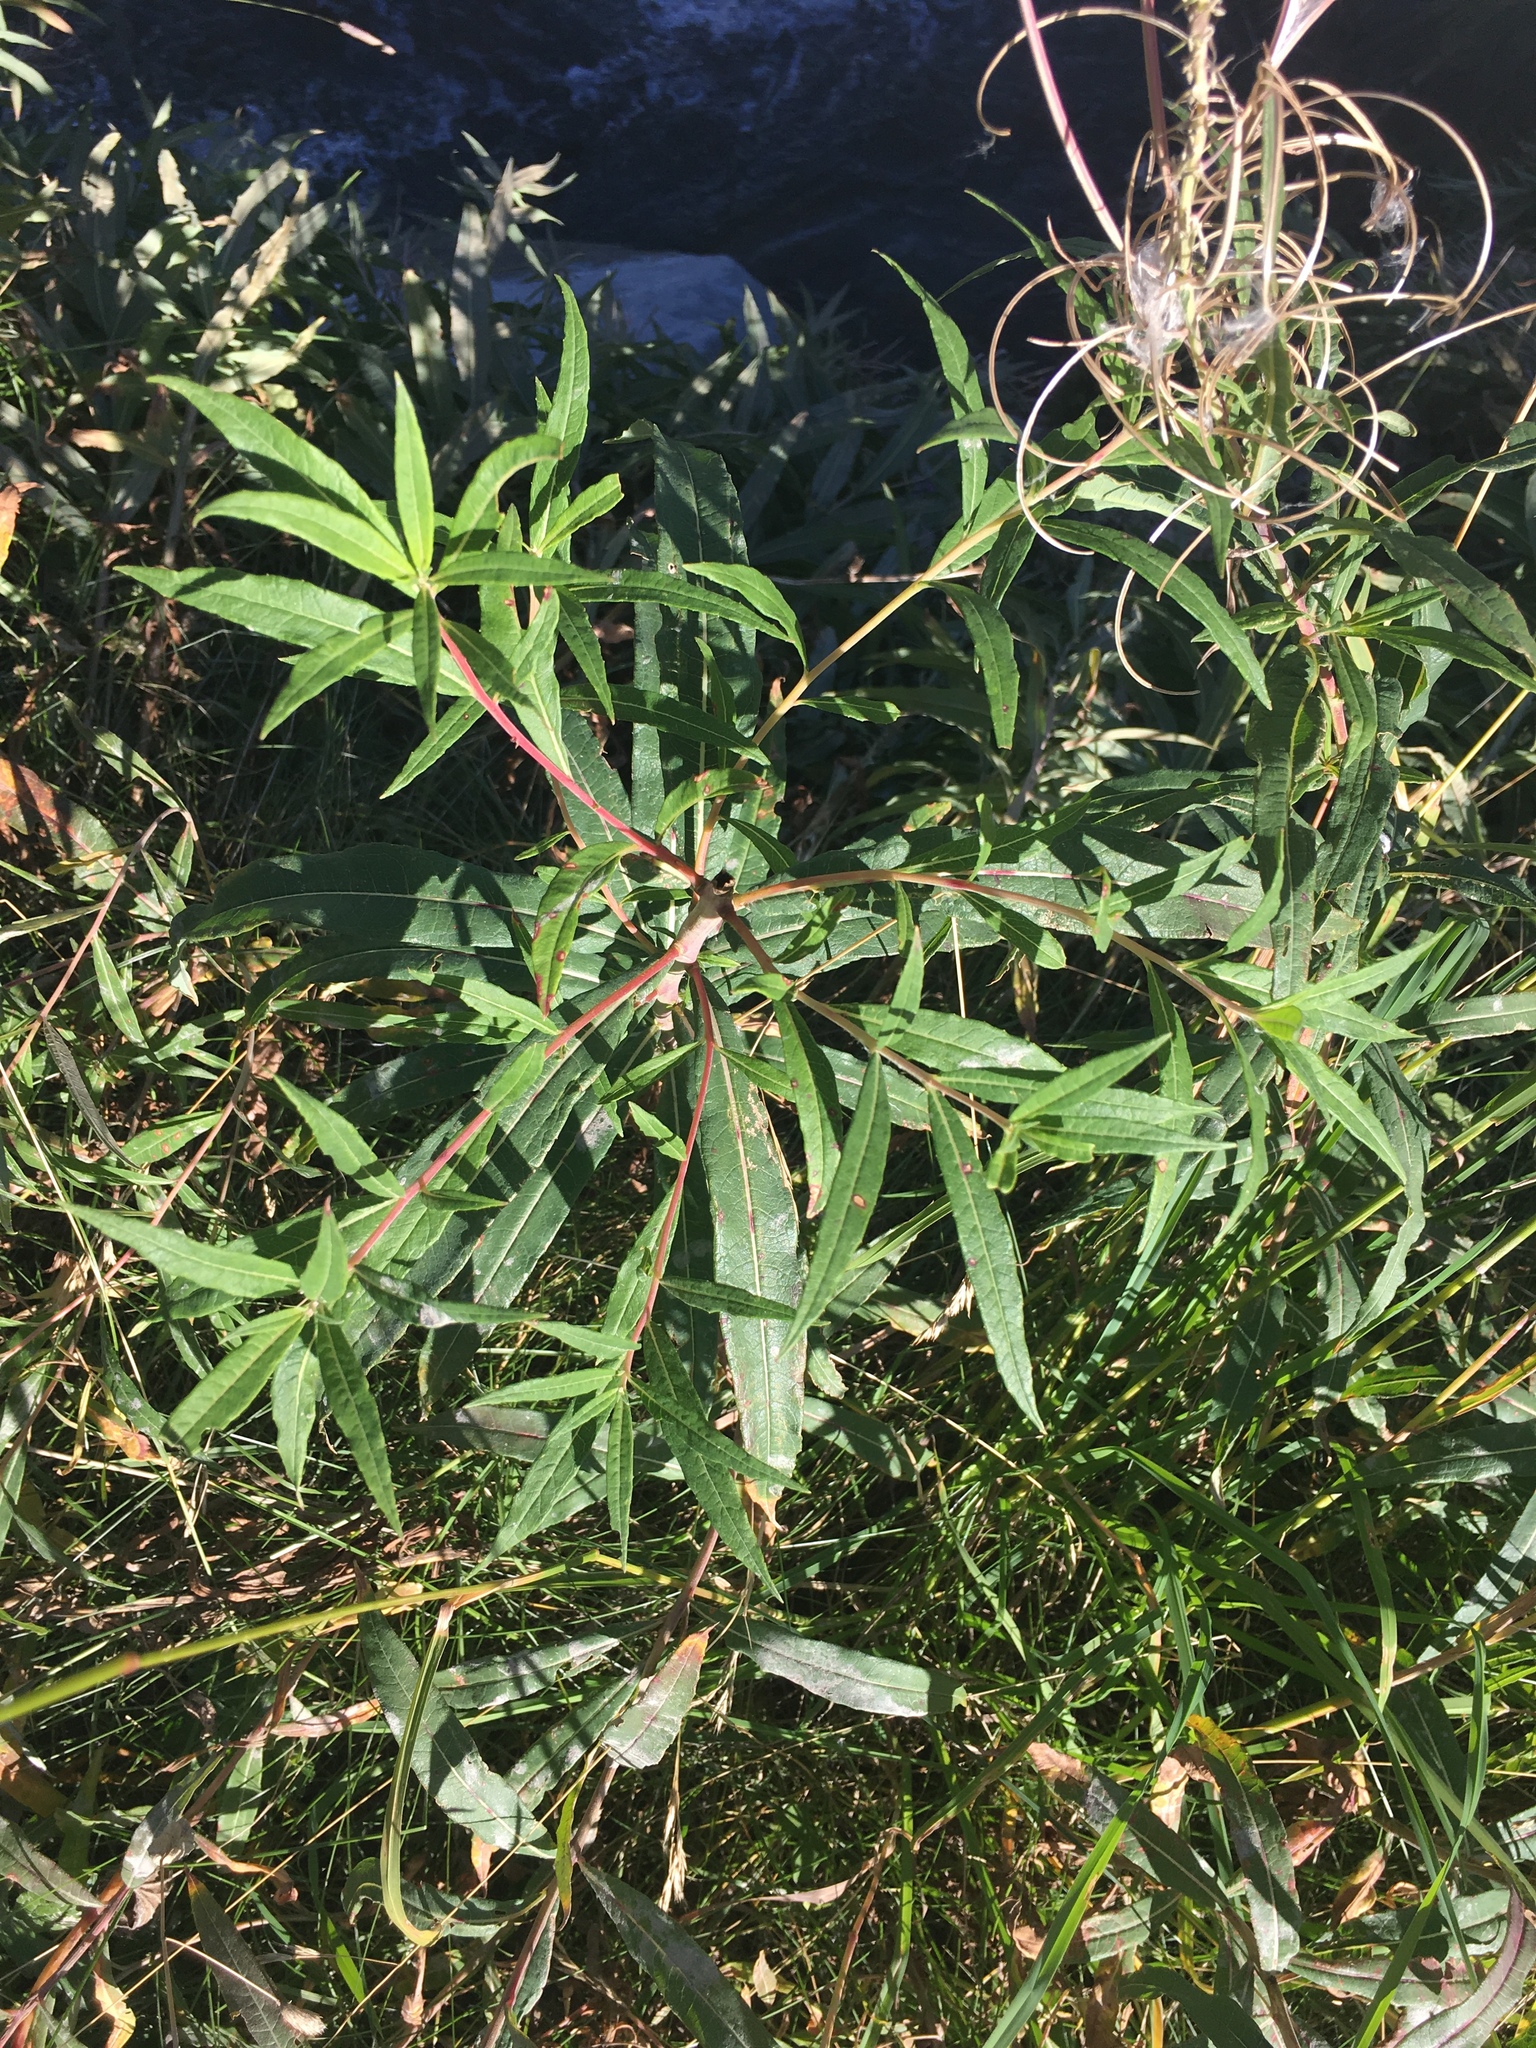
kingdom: Plantae
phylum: Tracheophyta
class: Magnoliopsida
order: Myrtales
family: Onagraceae
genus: Chamaenerion
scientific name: Chamaenerion angustifolium
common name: Fireweed
